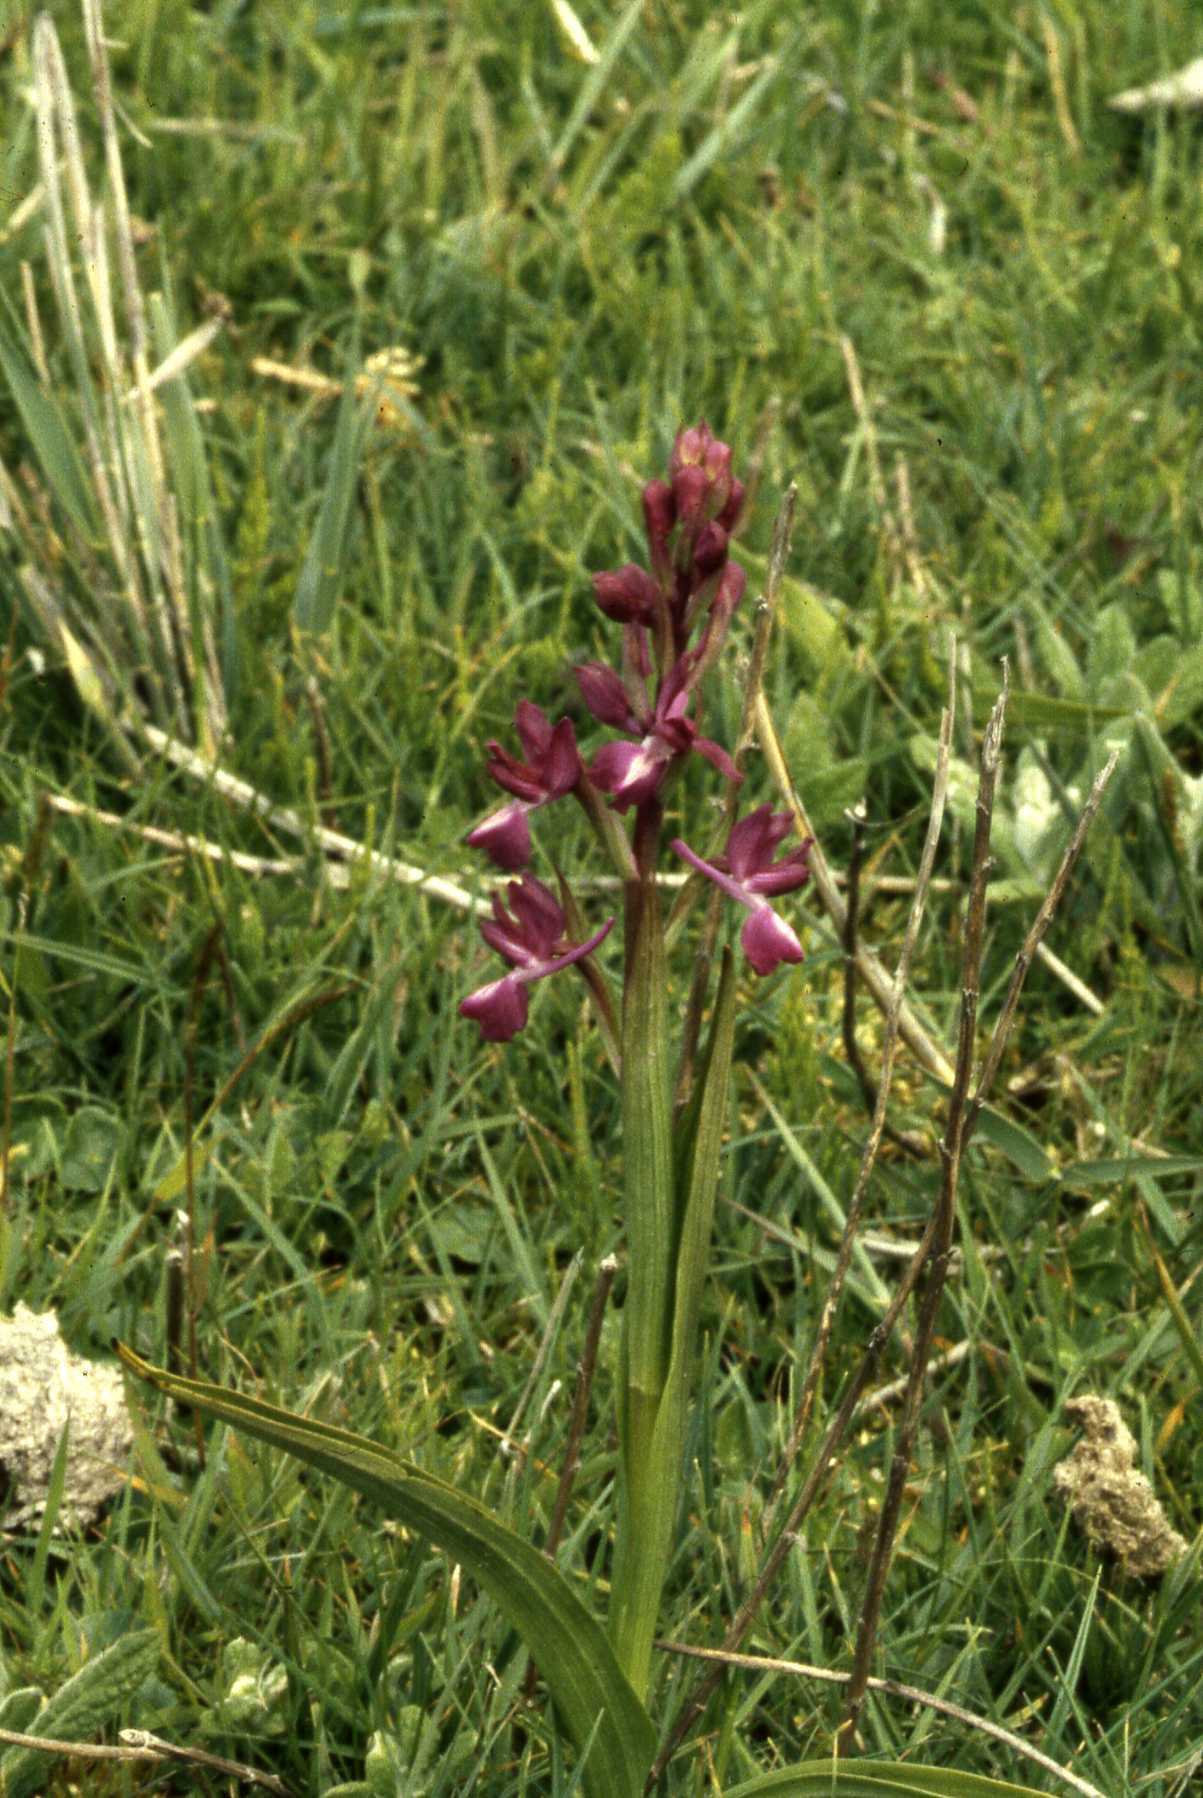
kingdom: Plantae
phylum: Tracheophyta
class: Liliopsida
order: Asparagales
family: Orchidaceae
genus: Anacamptis
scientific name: Anacamptis laxiflora
